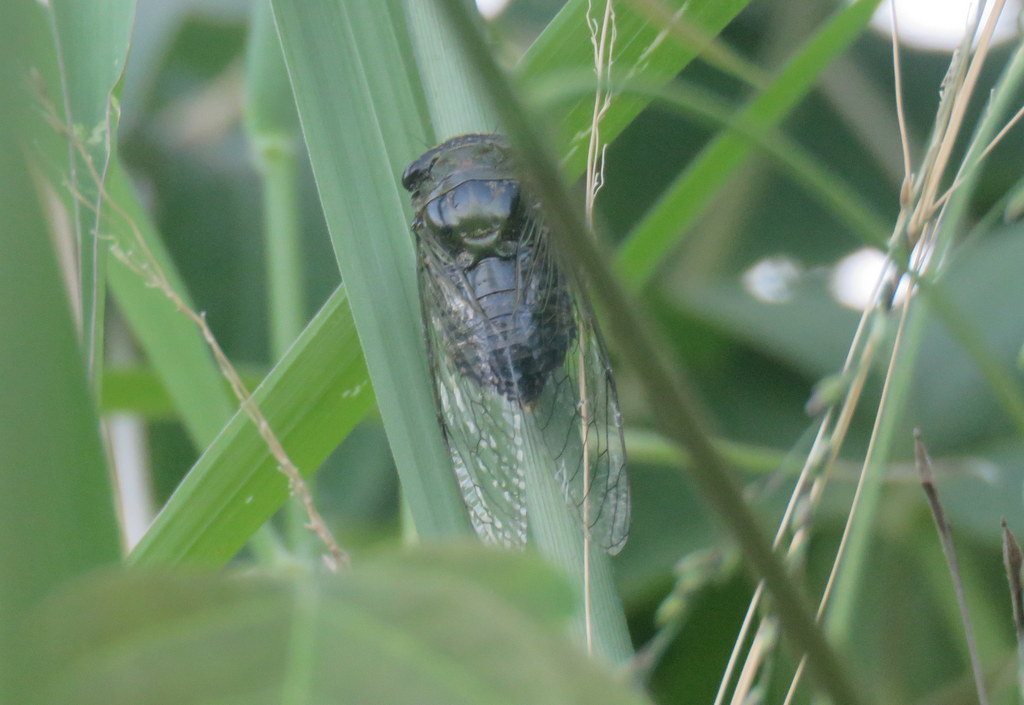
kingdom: Animalia
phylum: Arthropoda
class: Insecta
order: Hemiptera
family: Cicadidae
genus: Acanthoventris
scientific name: Acanthoventris drewseni
